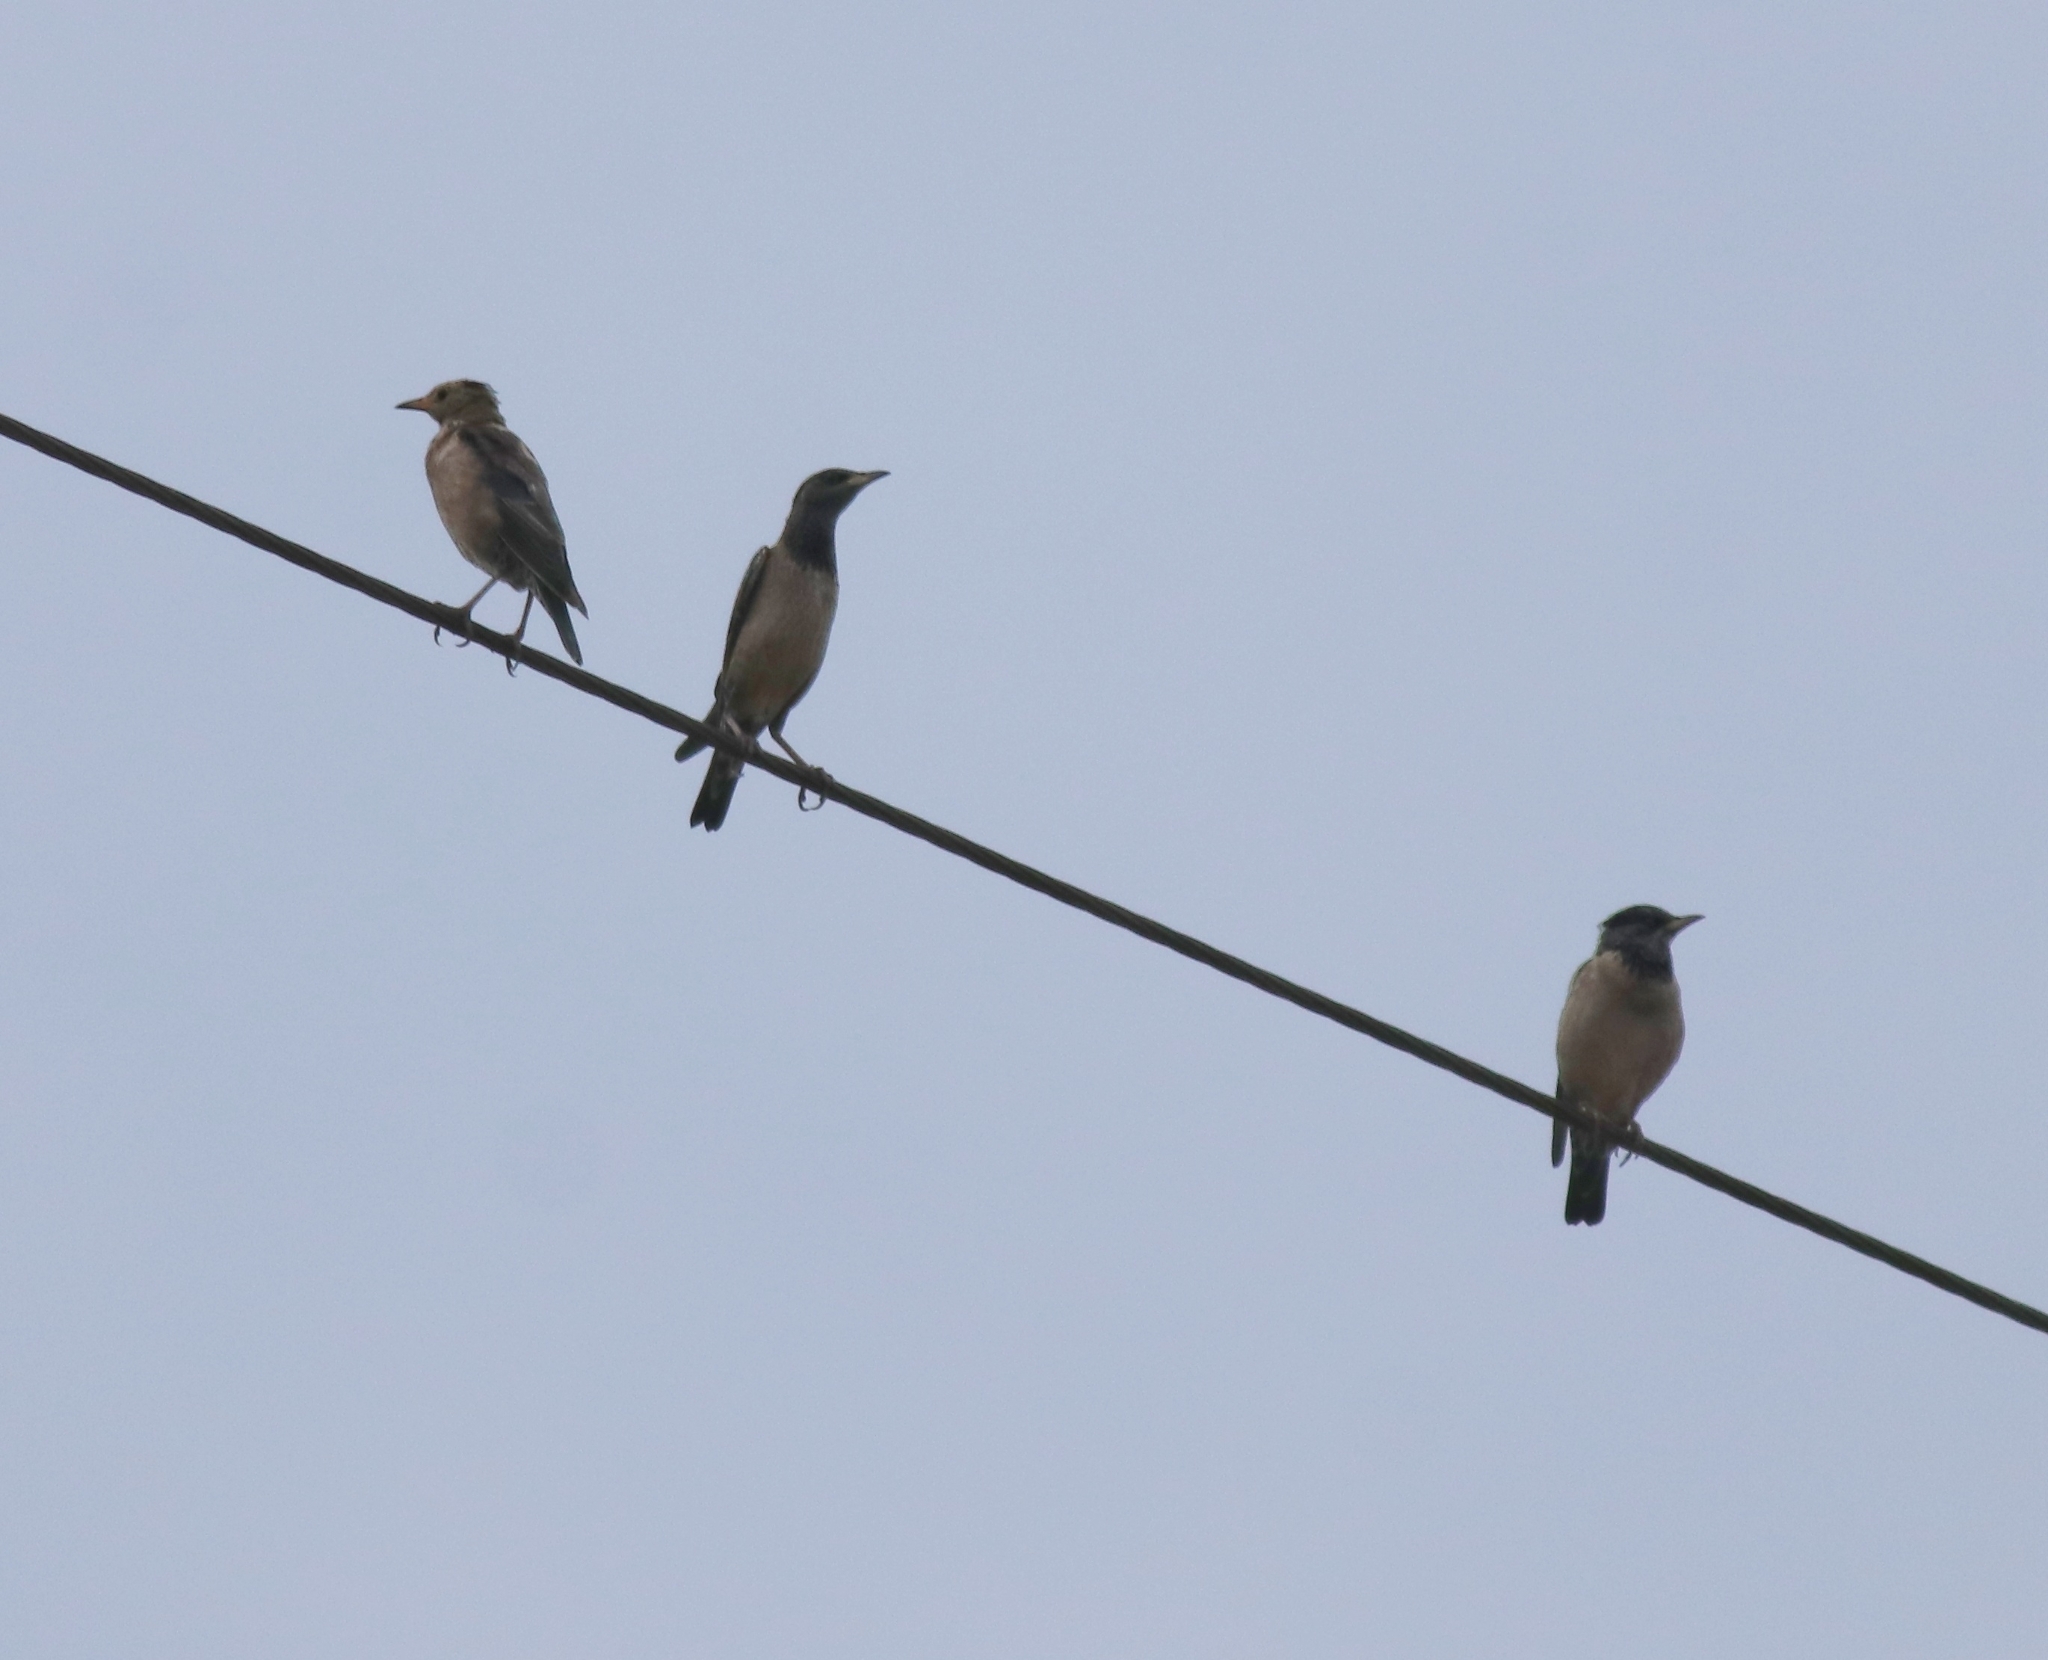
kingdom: Animalia
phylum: Chordata
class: Aves
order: Passeriformes
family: Sturnidae
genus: Pastor
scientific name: Pastor roseus
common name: Rosy starling
